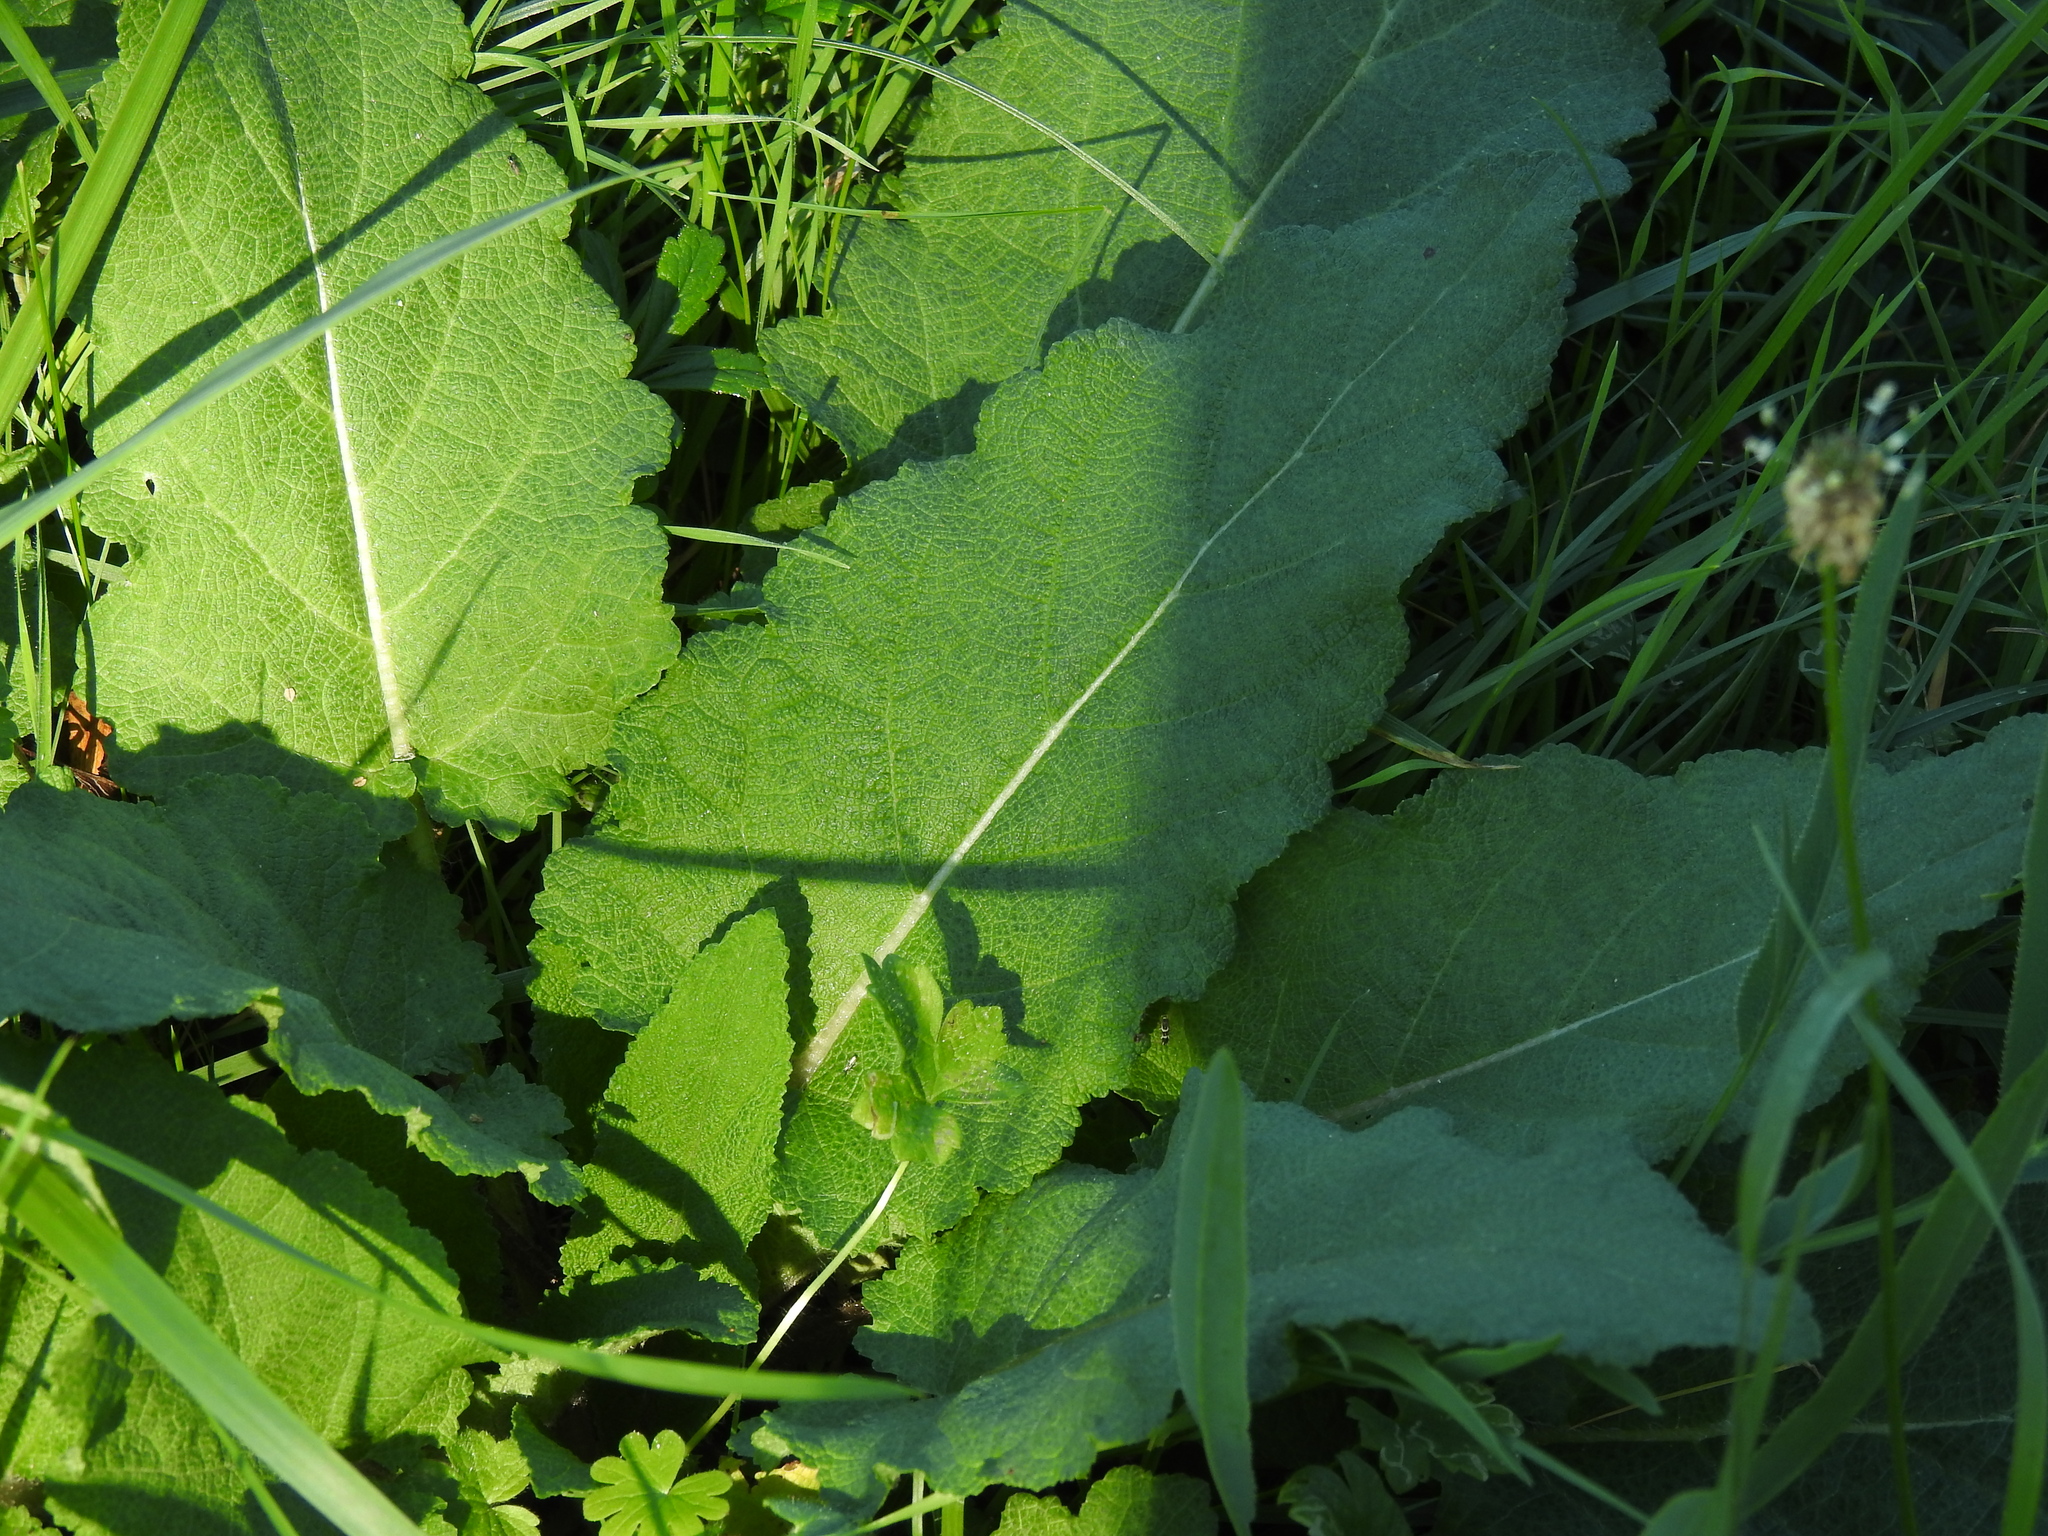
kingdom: Plantae
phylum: Tracheophyta
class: Magnoliopsida
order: Lamiales
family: Lamiaceae
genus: Salvia
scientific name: Salvia pratensis
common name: Meadow sage
